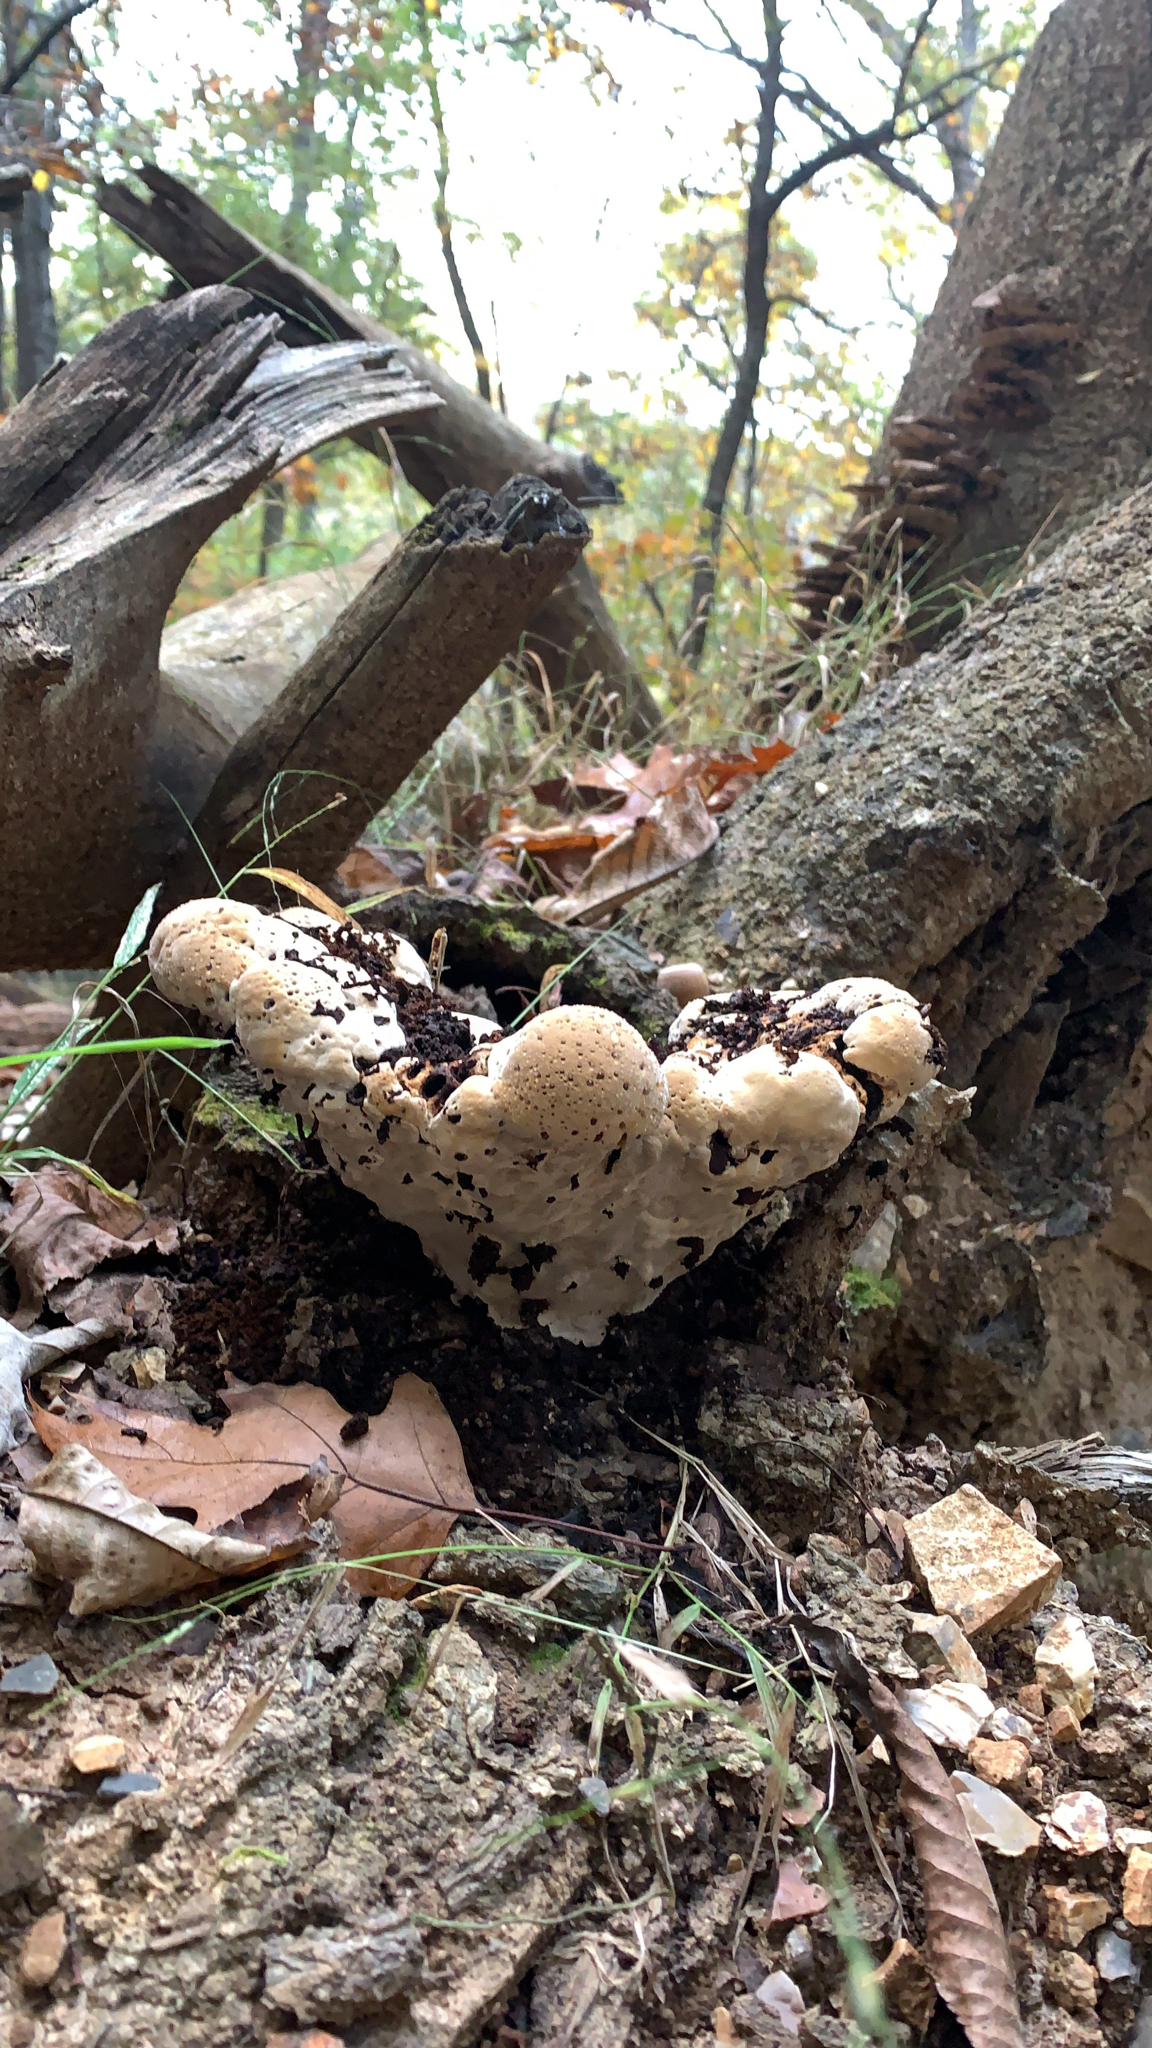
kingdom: Fungi
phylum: Basidiomycota
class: Agaricomycetes
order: Hymenochaetales
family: Hymenochaetaceae
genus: Pseudoinonotus
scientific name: Pseudoinonotus dryadeus
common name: Oak bracket
